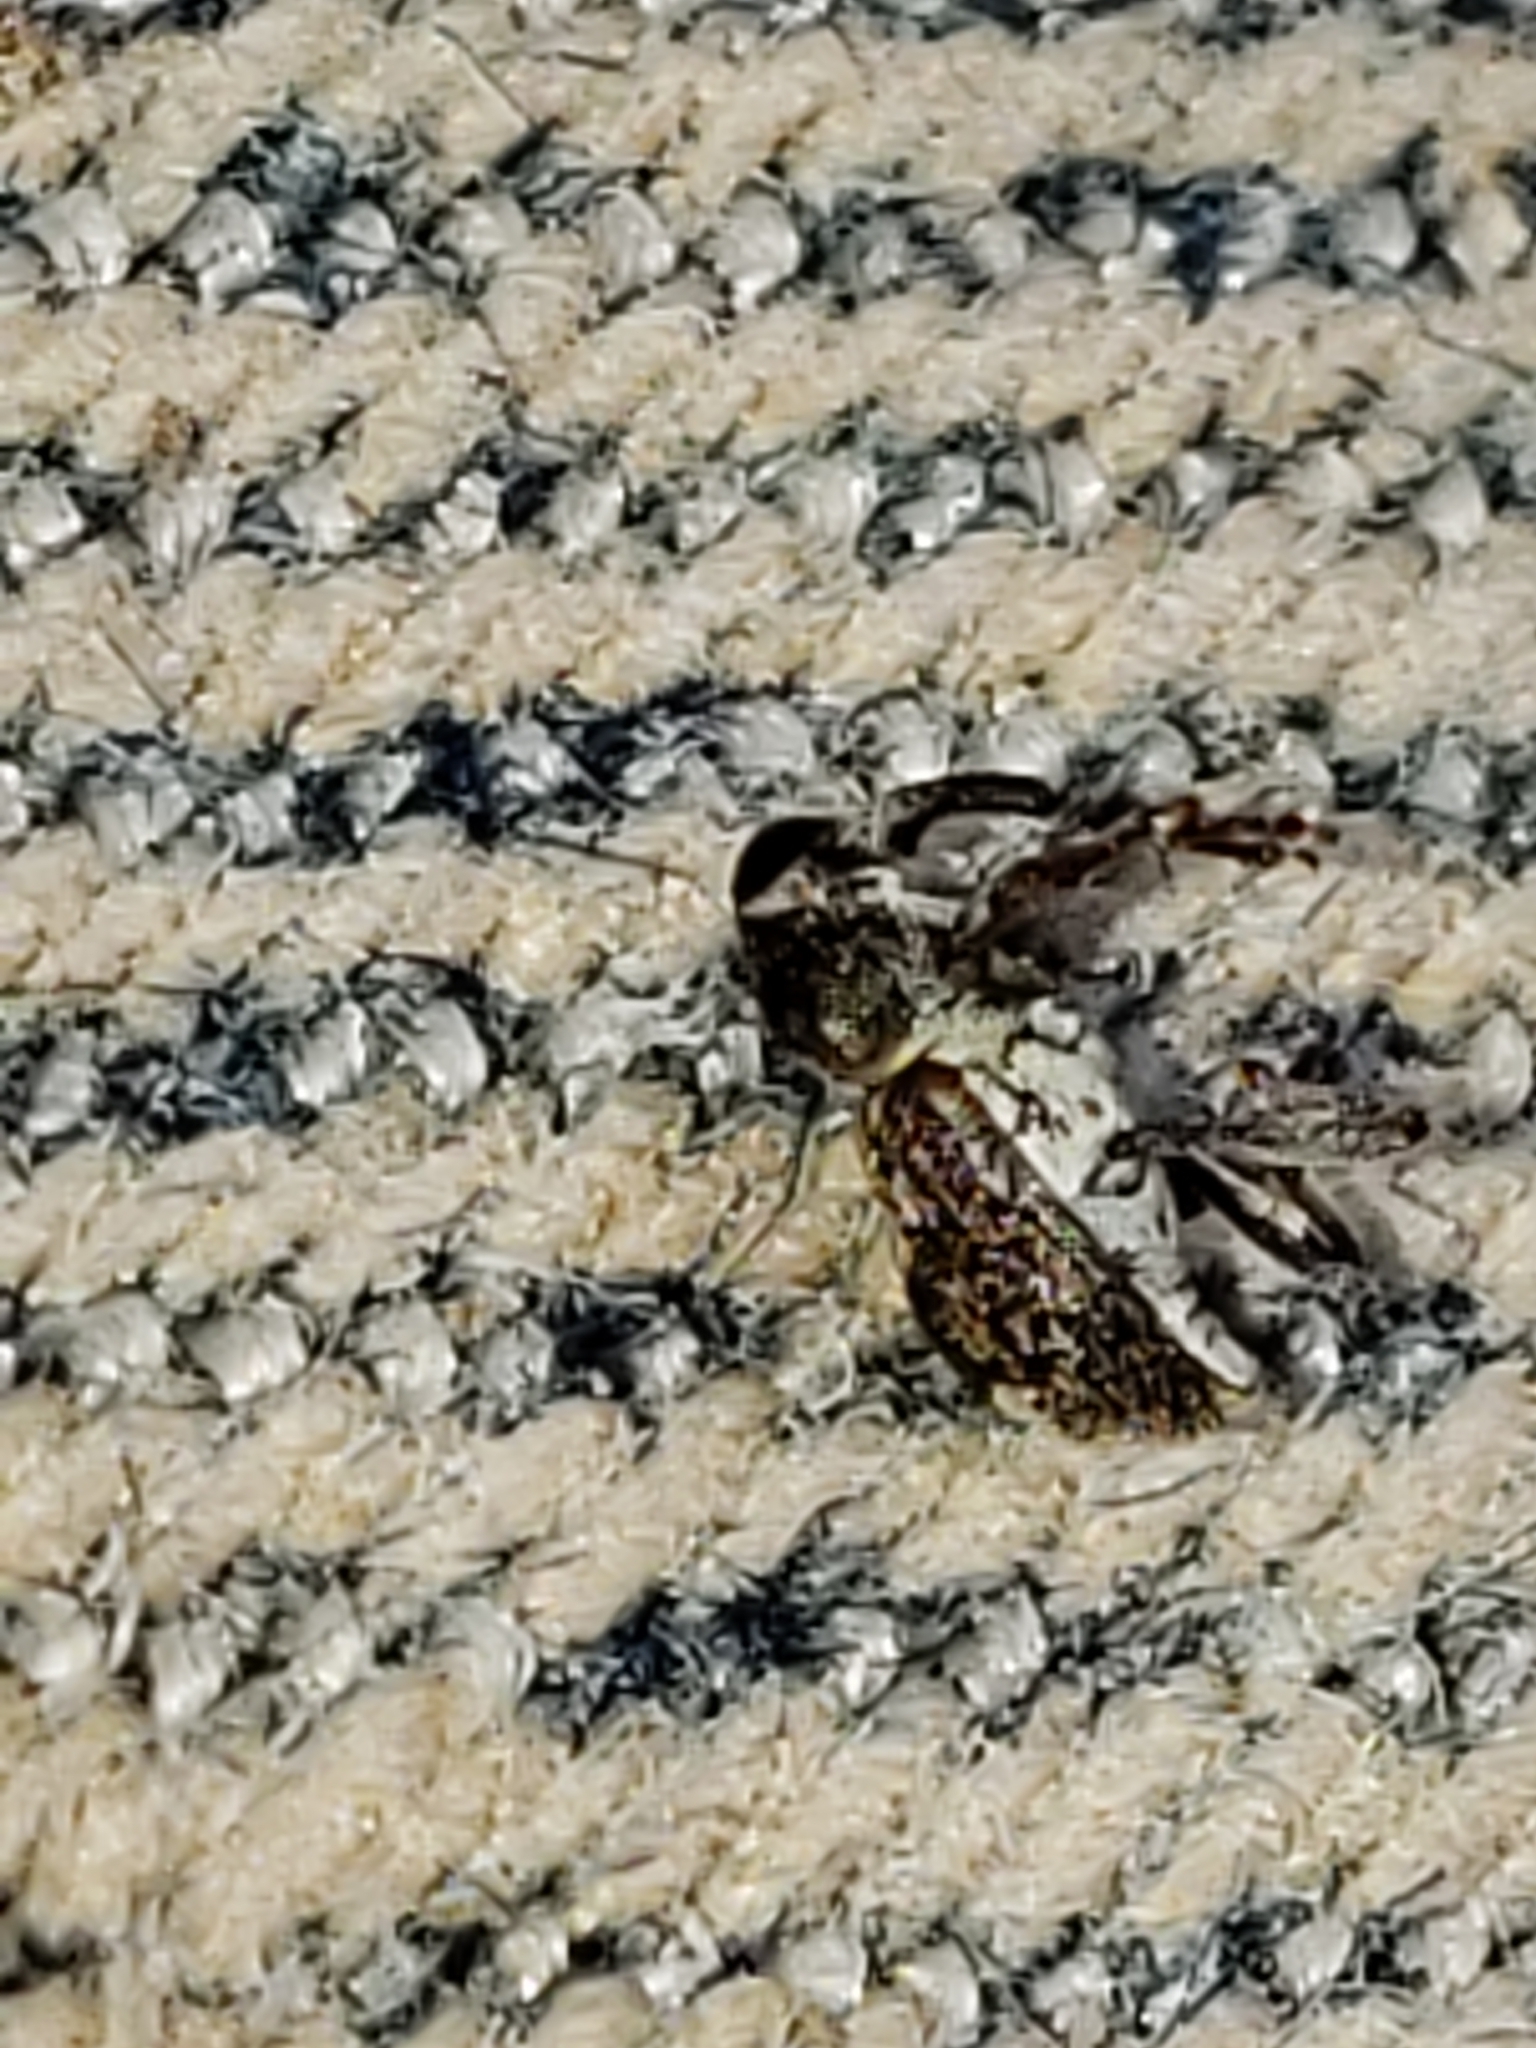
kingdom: Animalia
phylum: Arthropoda
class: Insecta
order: Coleoptera
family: Curculionidae
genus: Acoptus
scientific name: Acoptus suturalis
